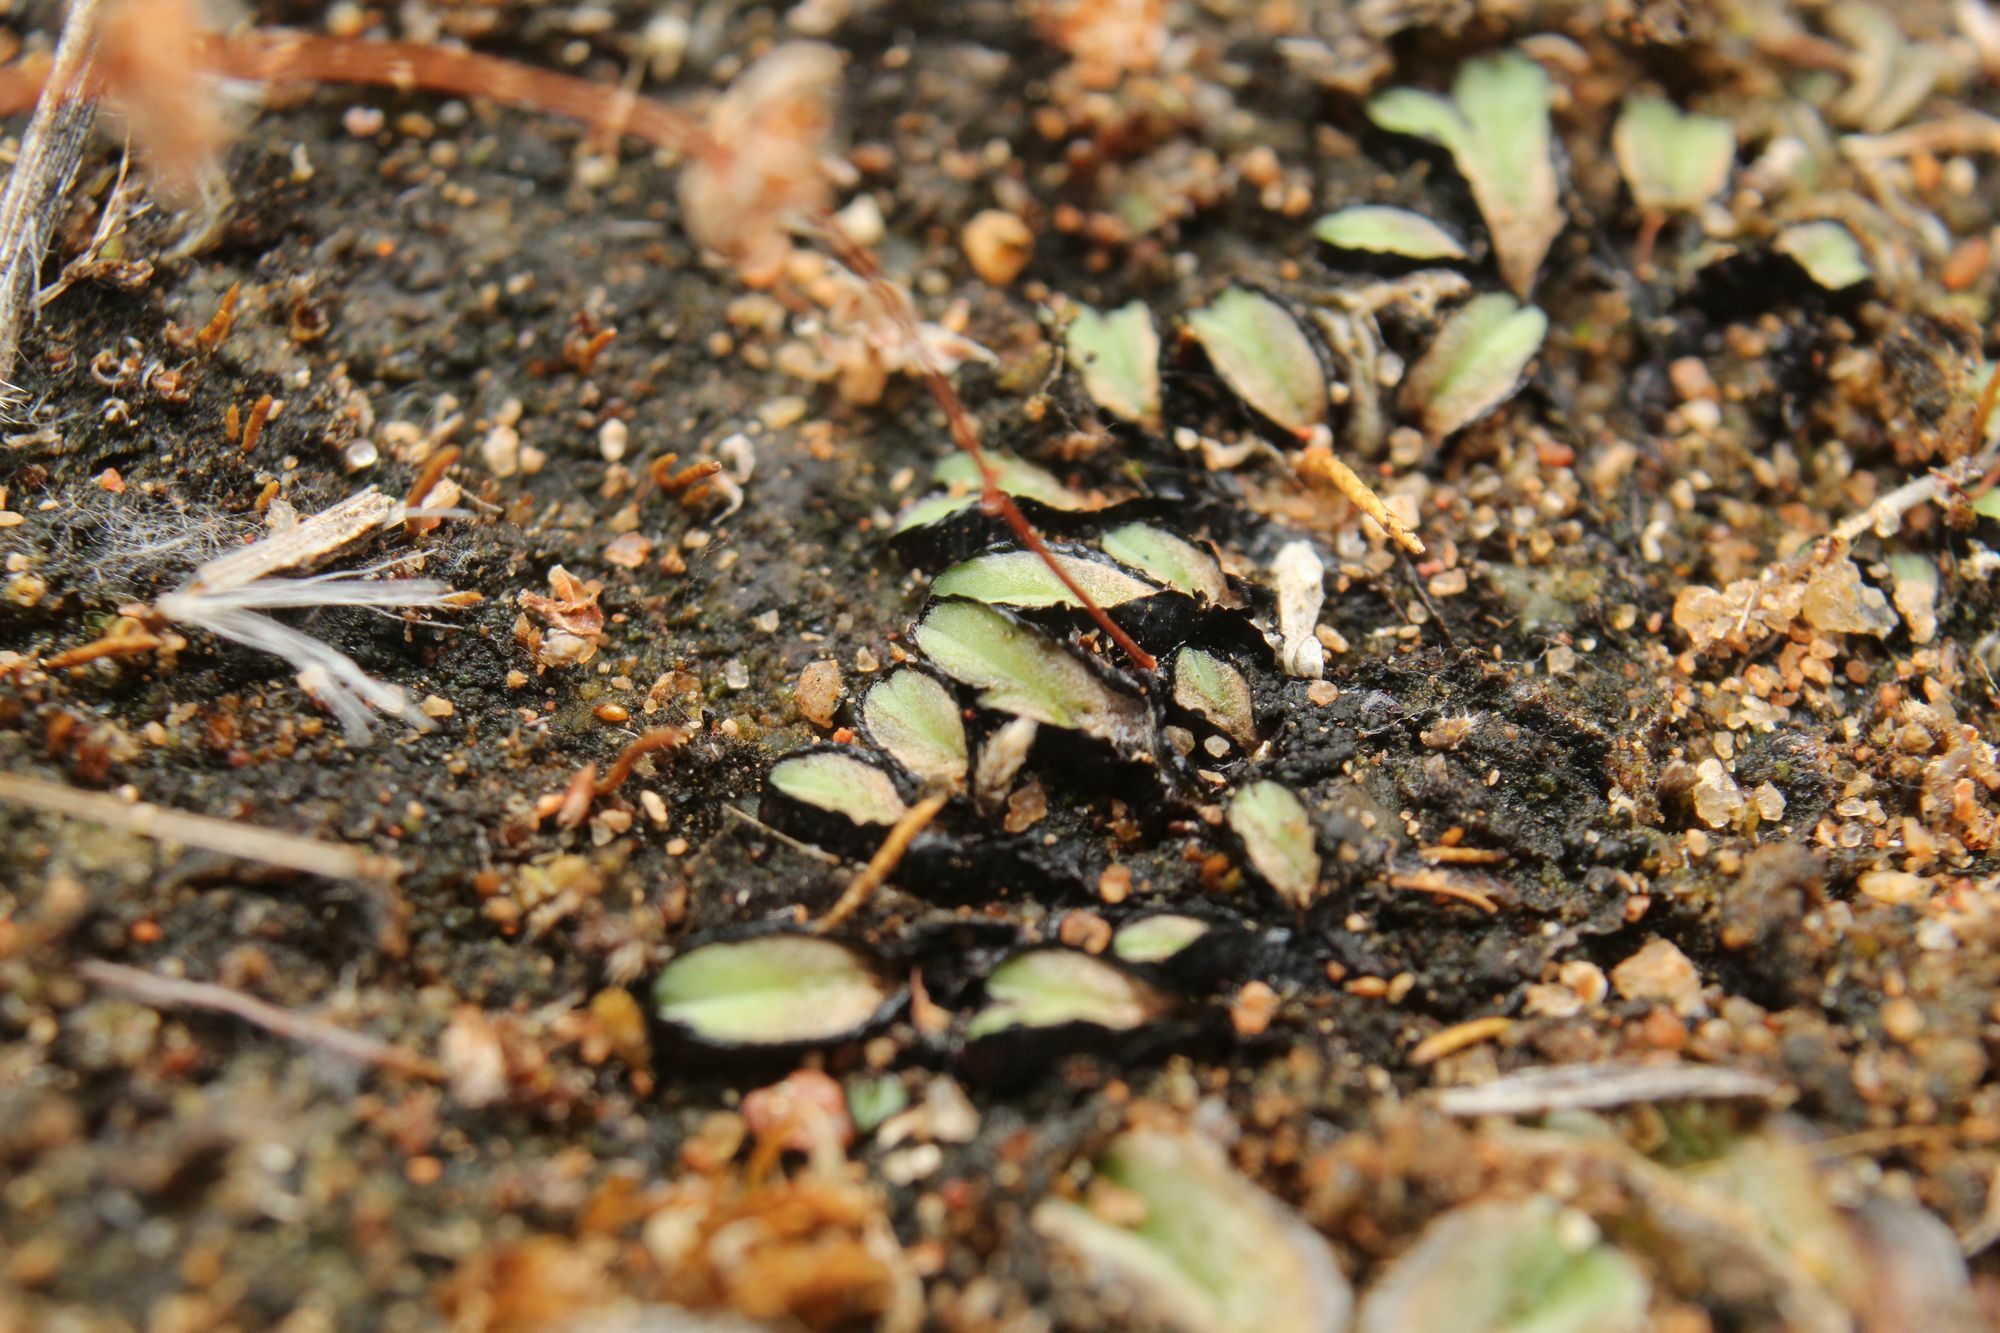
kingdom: Plantae
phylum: Marchantiophyta
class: Marchantiopsida
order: Marchantiales
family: Ricciaceae
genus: Riccia
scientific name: Riccia inflexa
